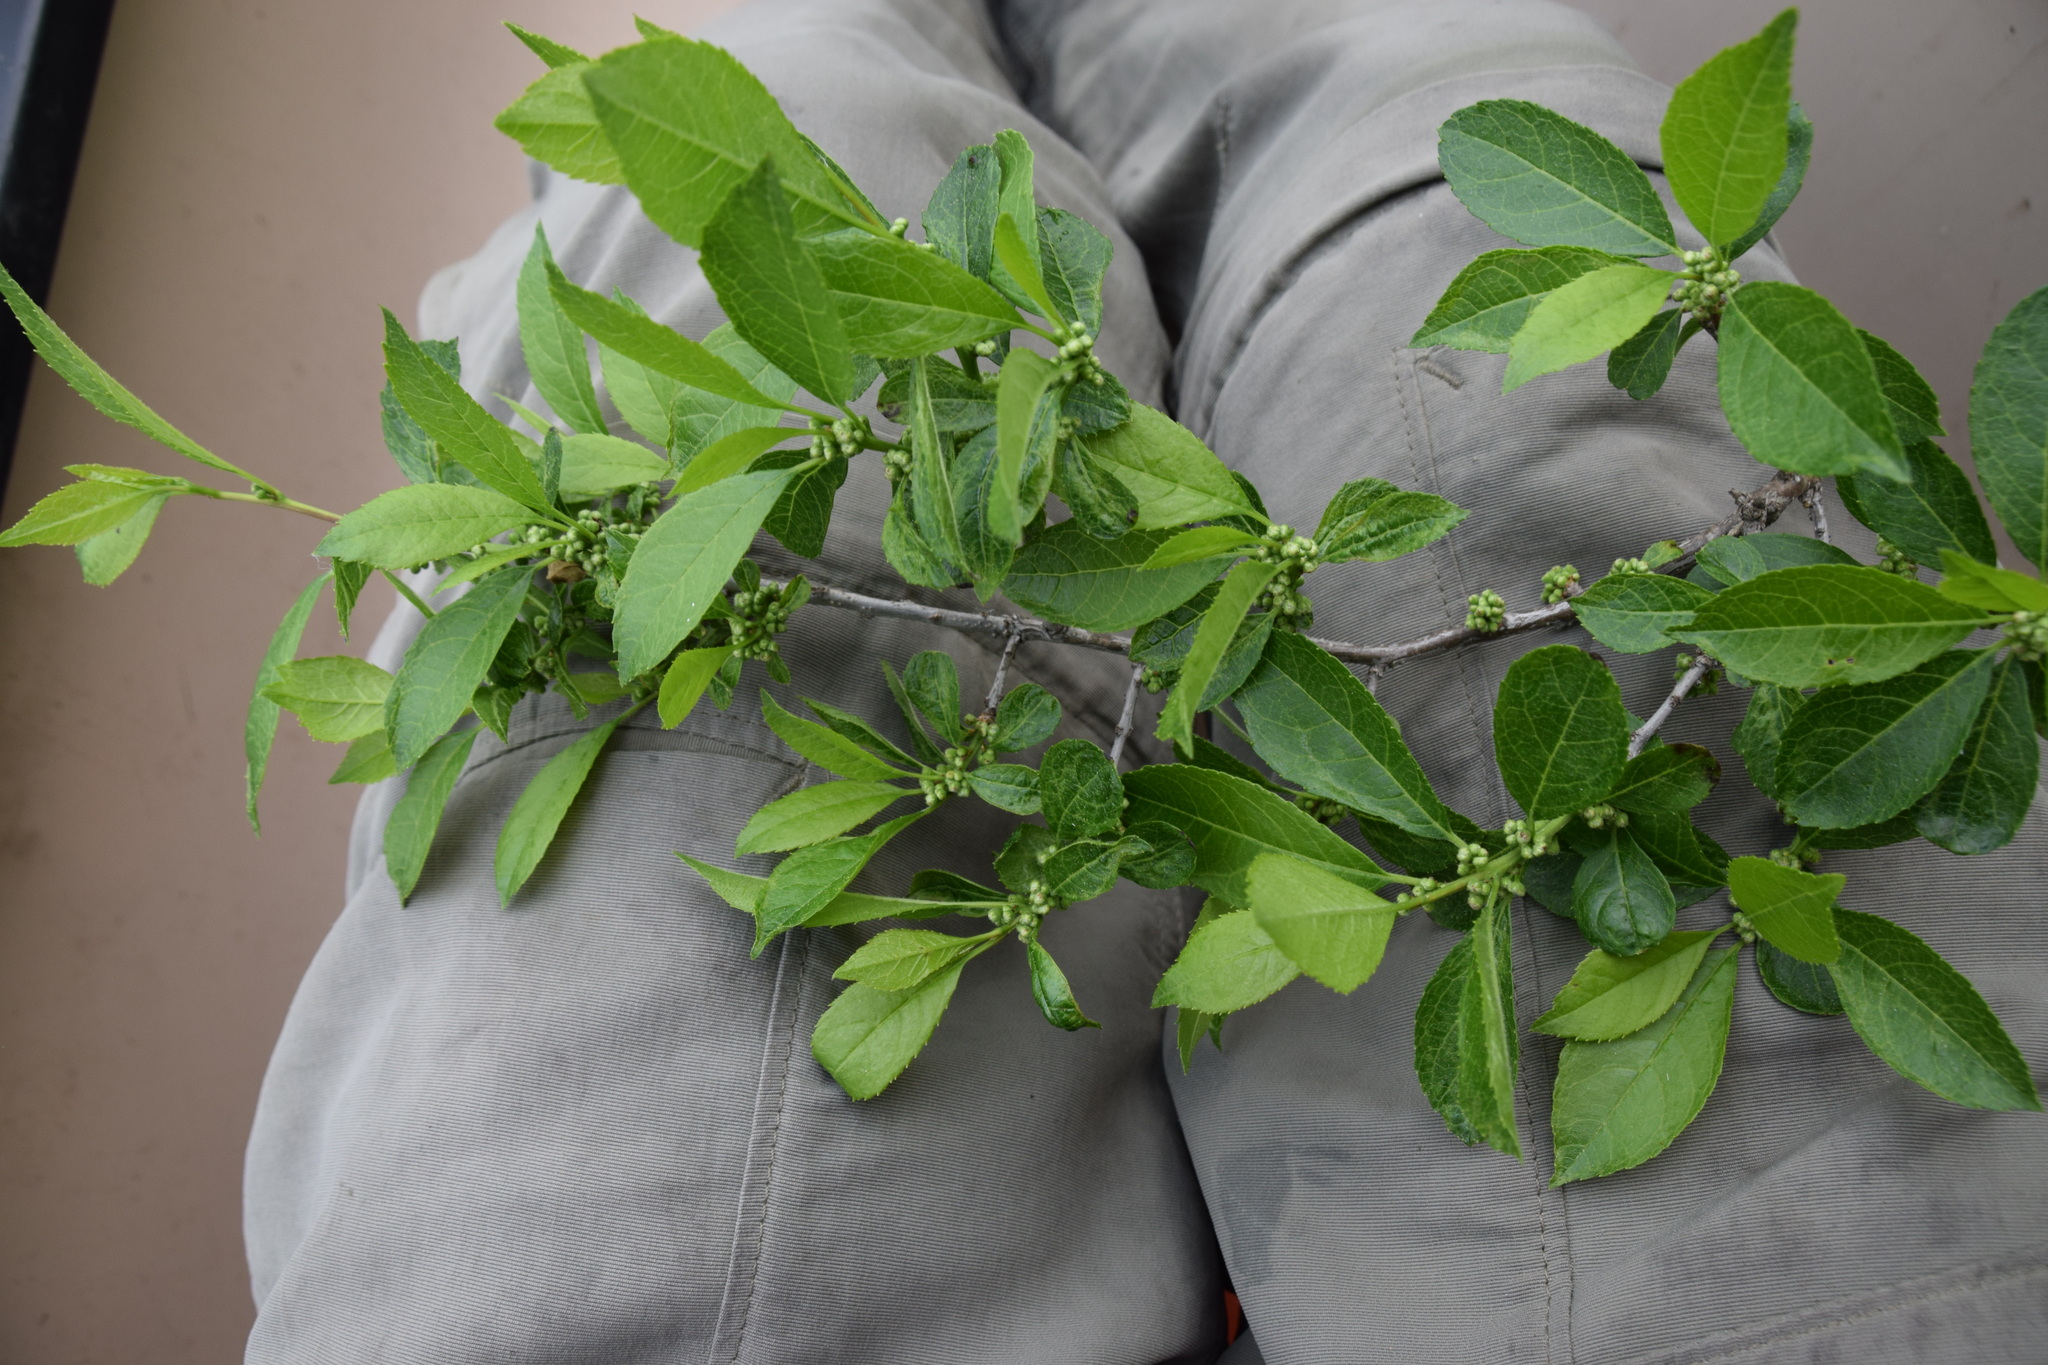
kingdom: Plantae
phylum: Tracheophyta
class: Magnoliopsida
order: Aquifoliales
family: Aquifoliaceae
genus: Ilex
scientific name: Ilex verticillata
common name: Virginia winterberry
